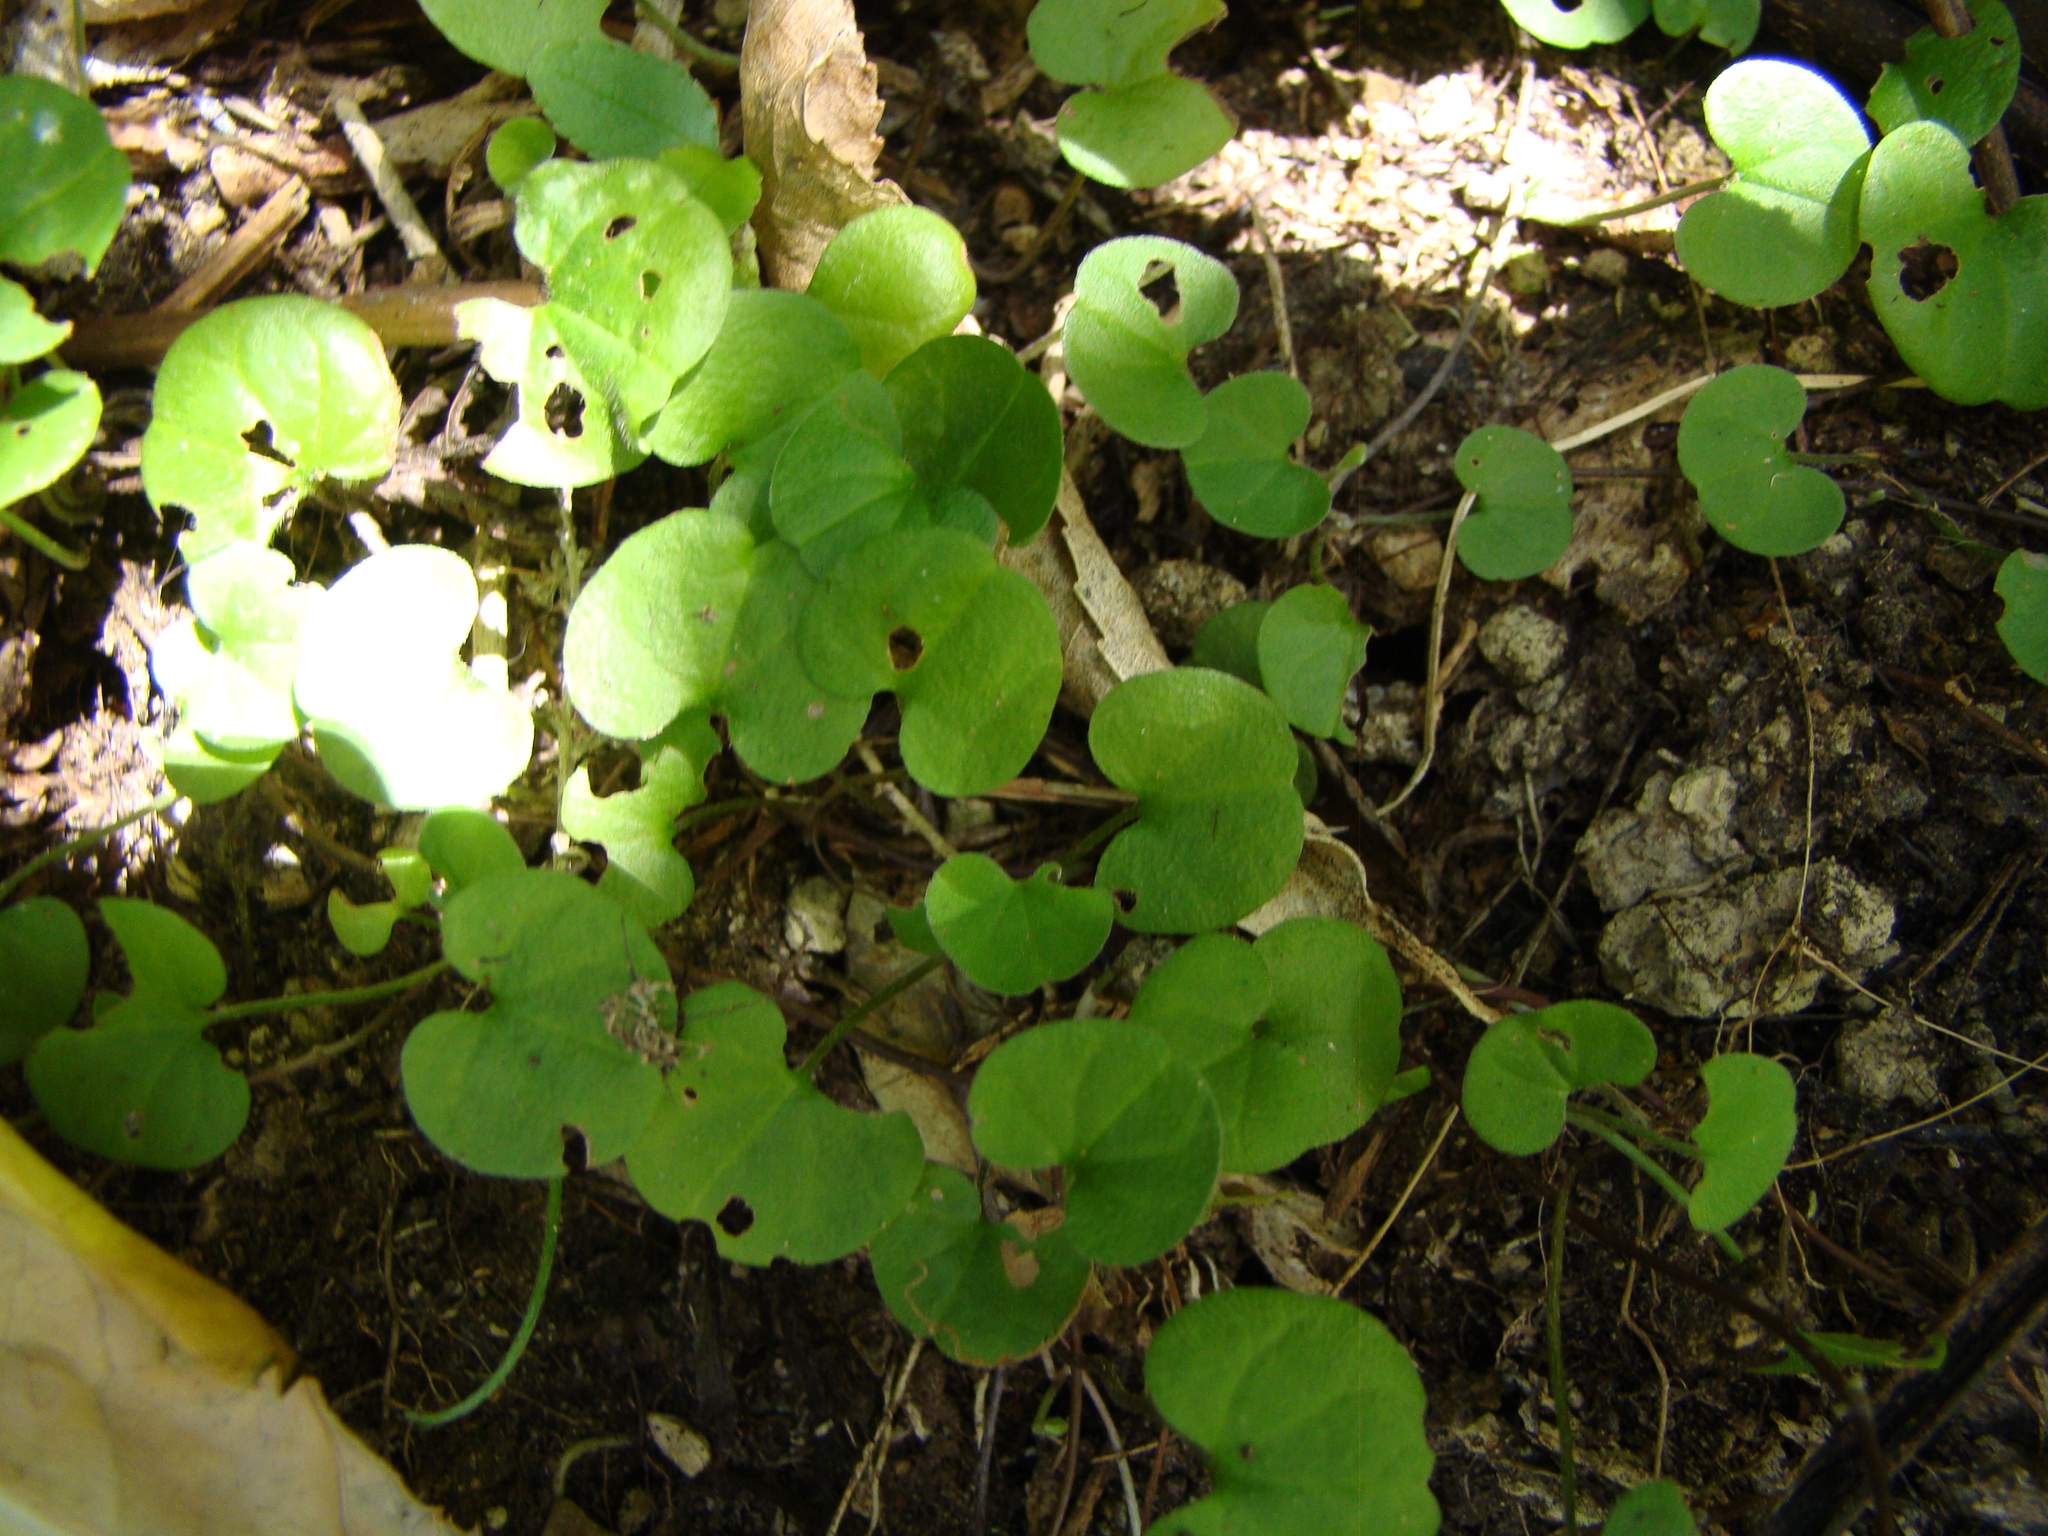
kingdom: Plantae
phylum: Tracheophyta
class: Magnoliopsida
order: Solanales
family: Convolvulaceae
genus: Dichondra
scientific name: Dichondra repens
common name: Kidneyweed
